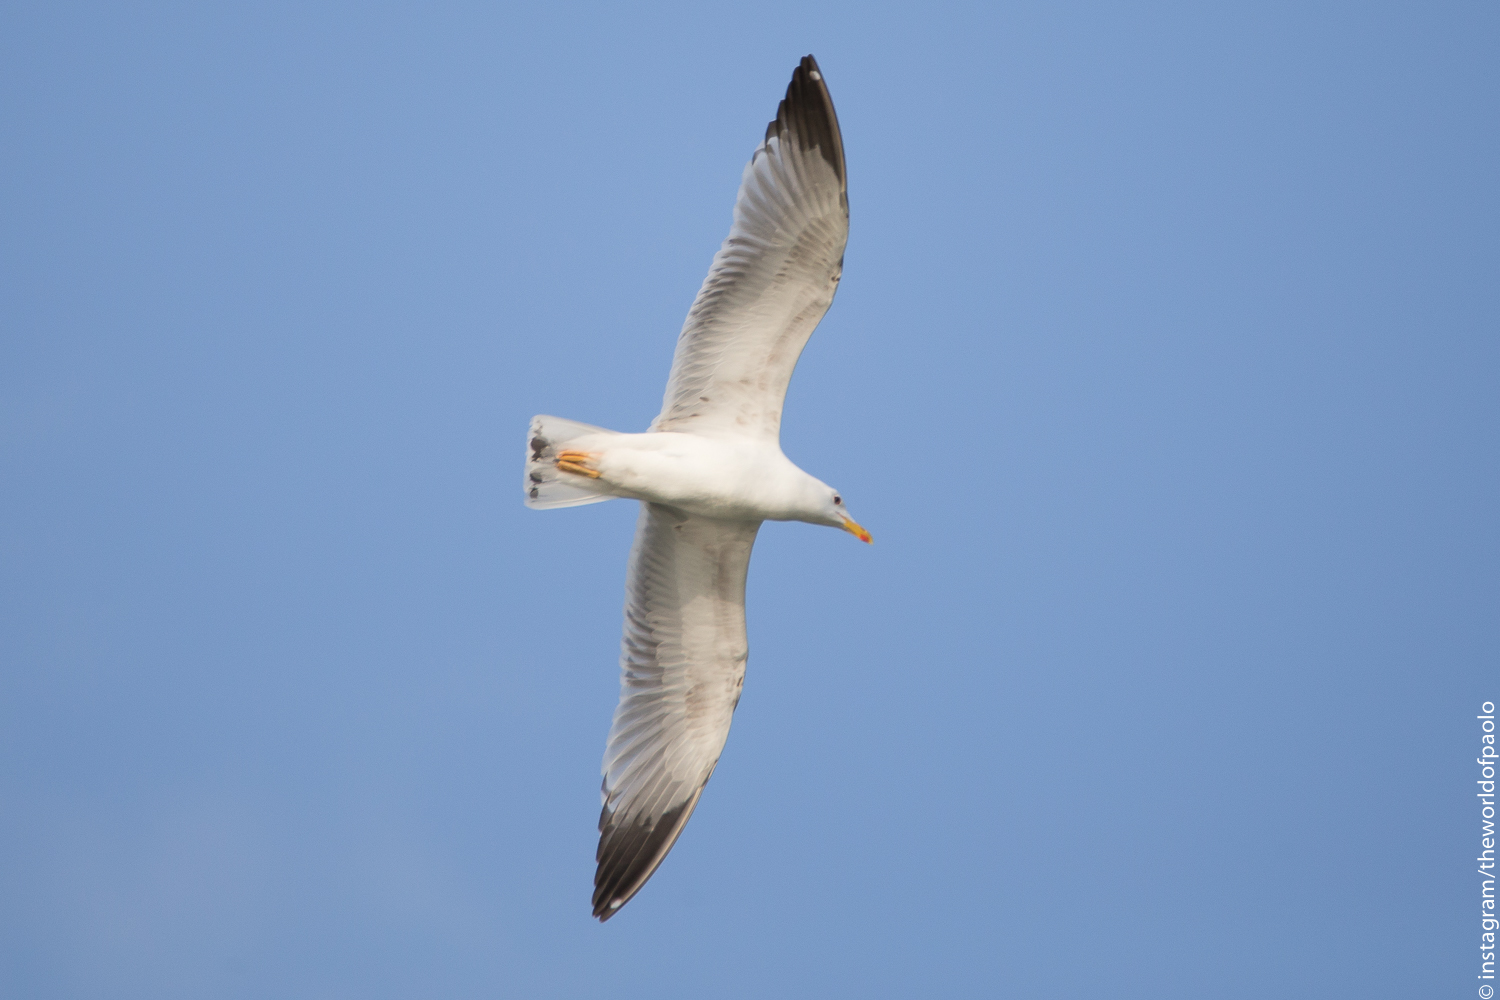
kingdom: Animalia
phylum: Chordata
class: Aves
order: Charadriiformes
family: Laridae
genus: Larus
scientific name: Larus michahellis
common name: Yellow-legged gull
